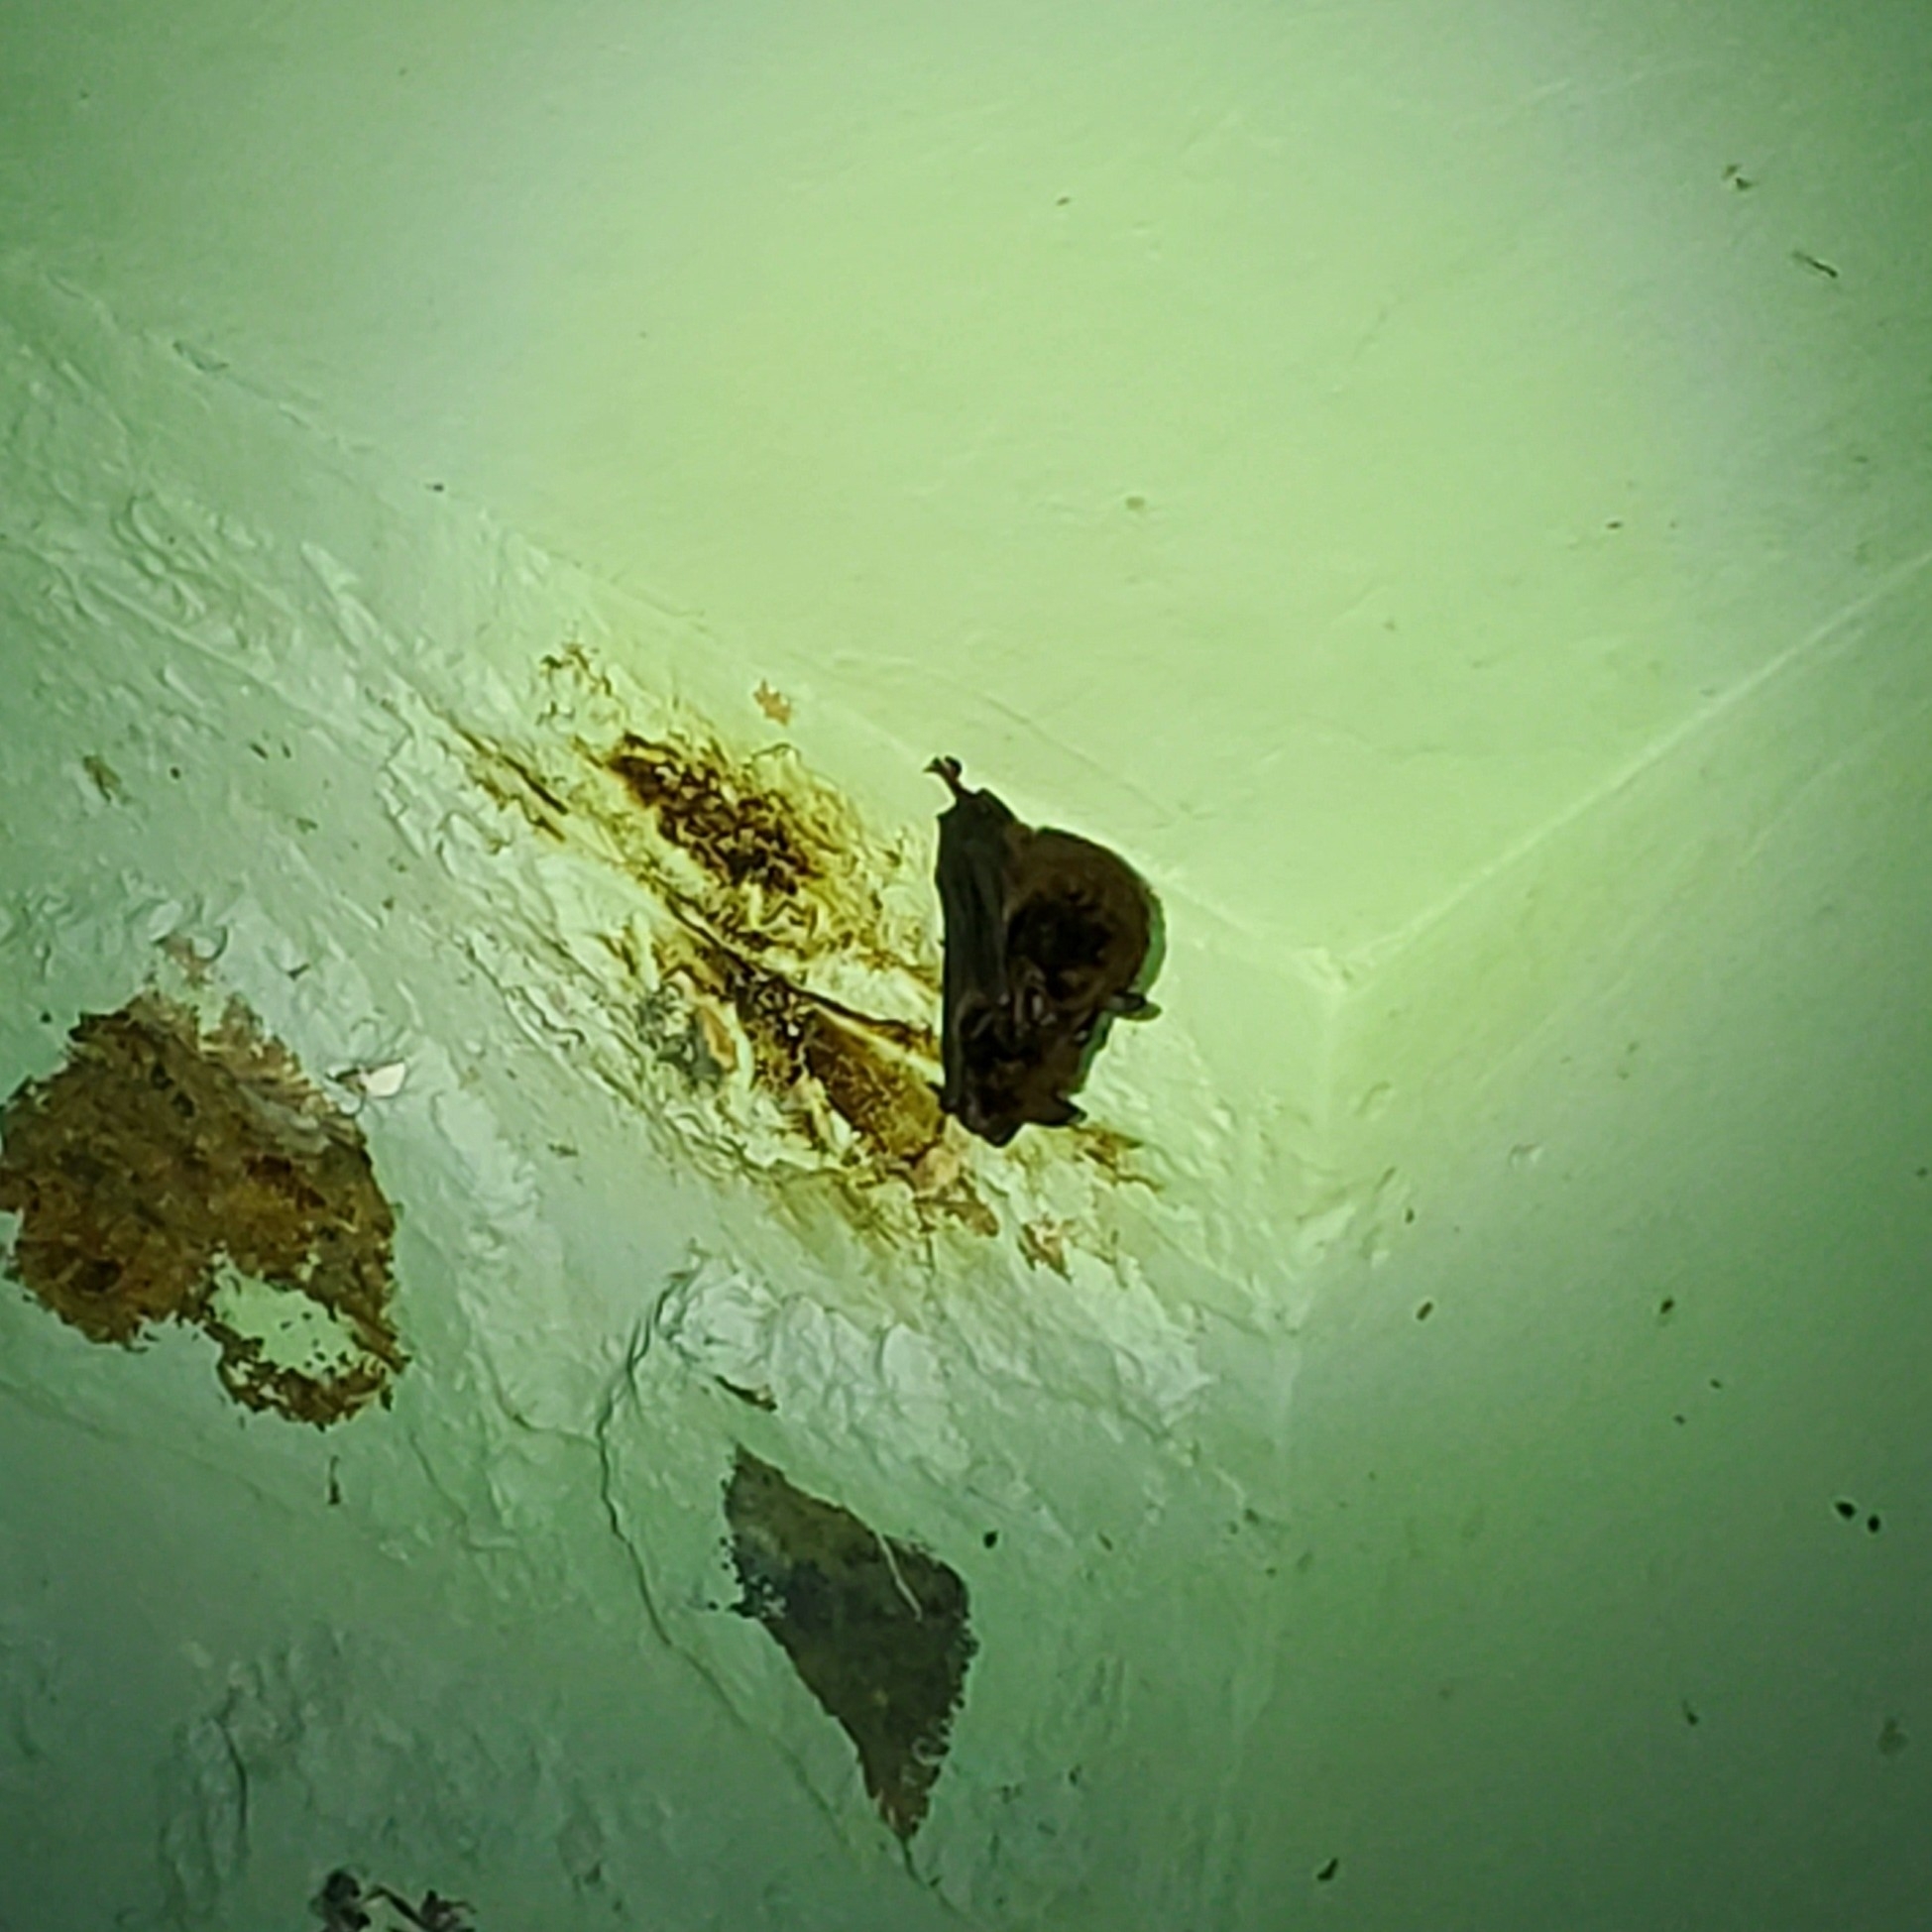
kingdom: Animalia
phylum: Chordata
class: Mammalia
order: Chiroptera
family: Vespertilionidae
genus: Eptesicus
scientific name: Eptesicus fuscus
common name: Big brown bat
